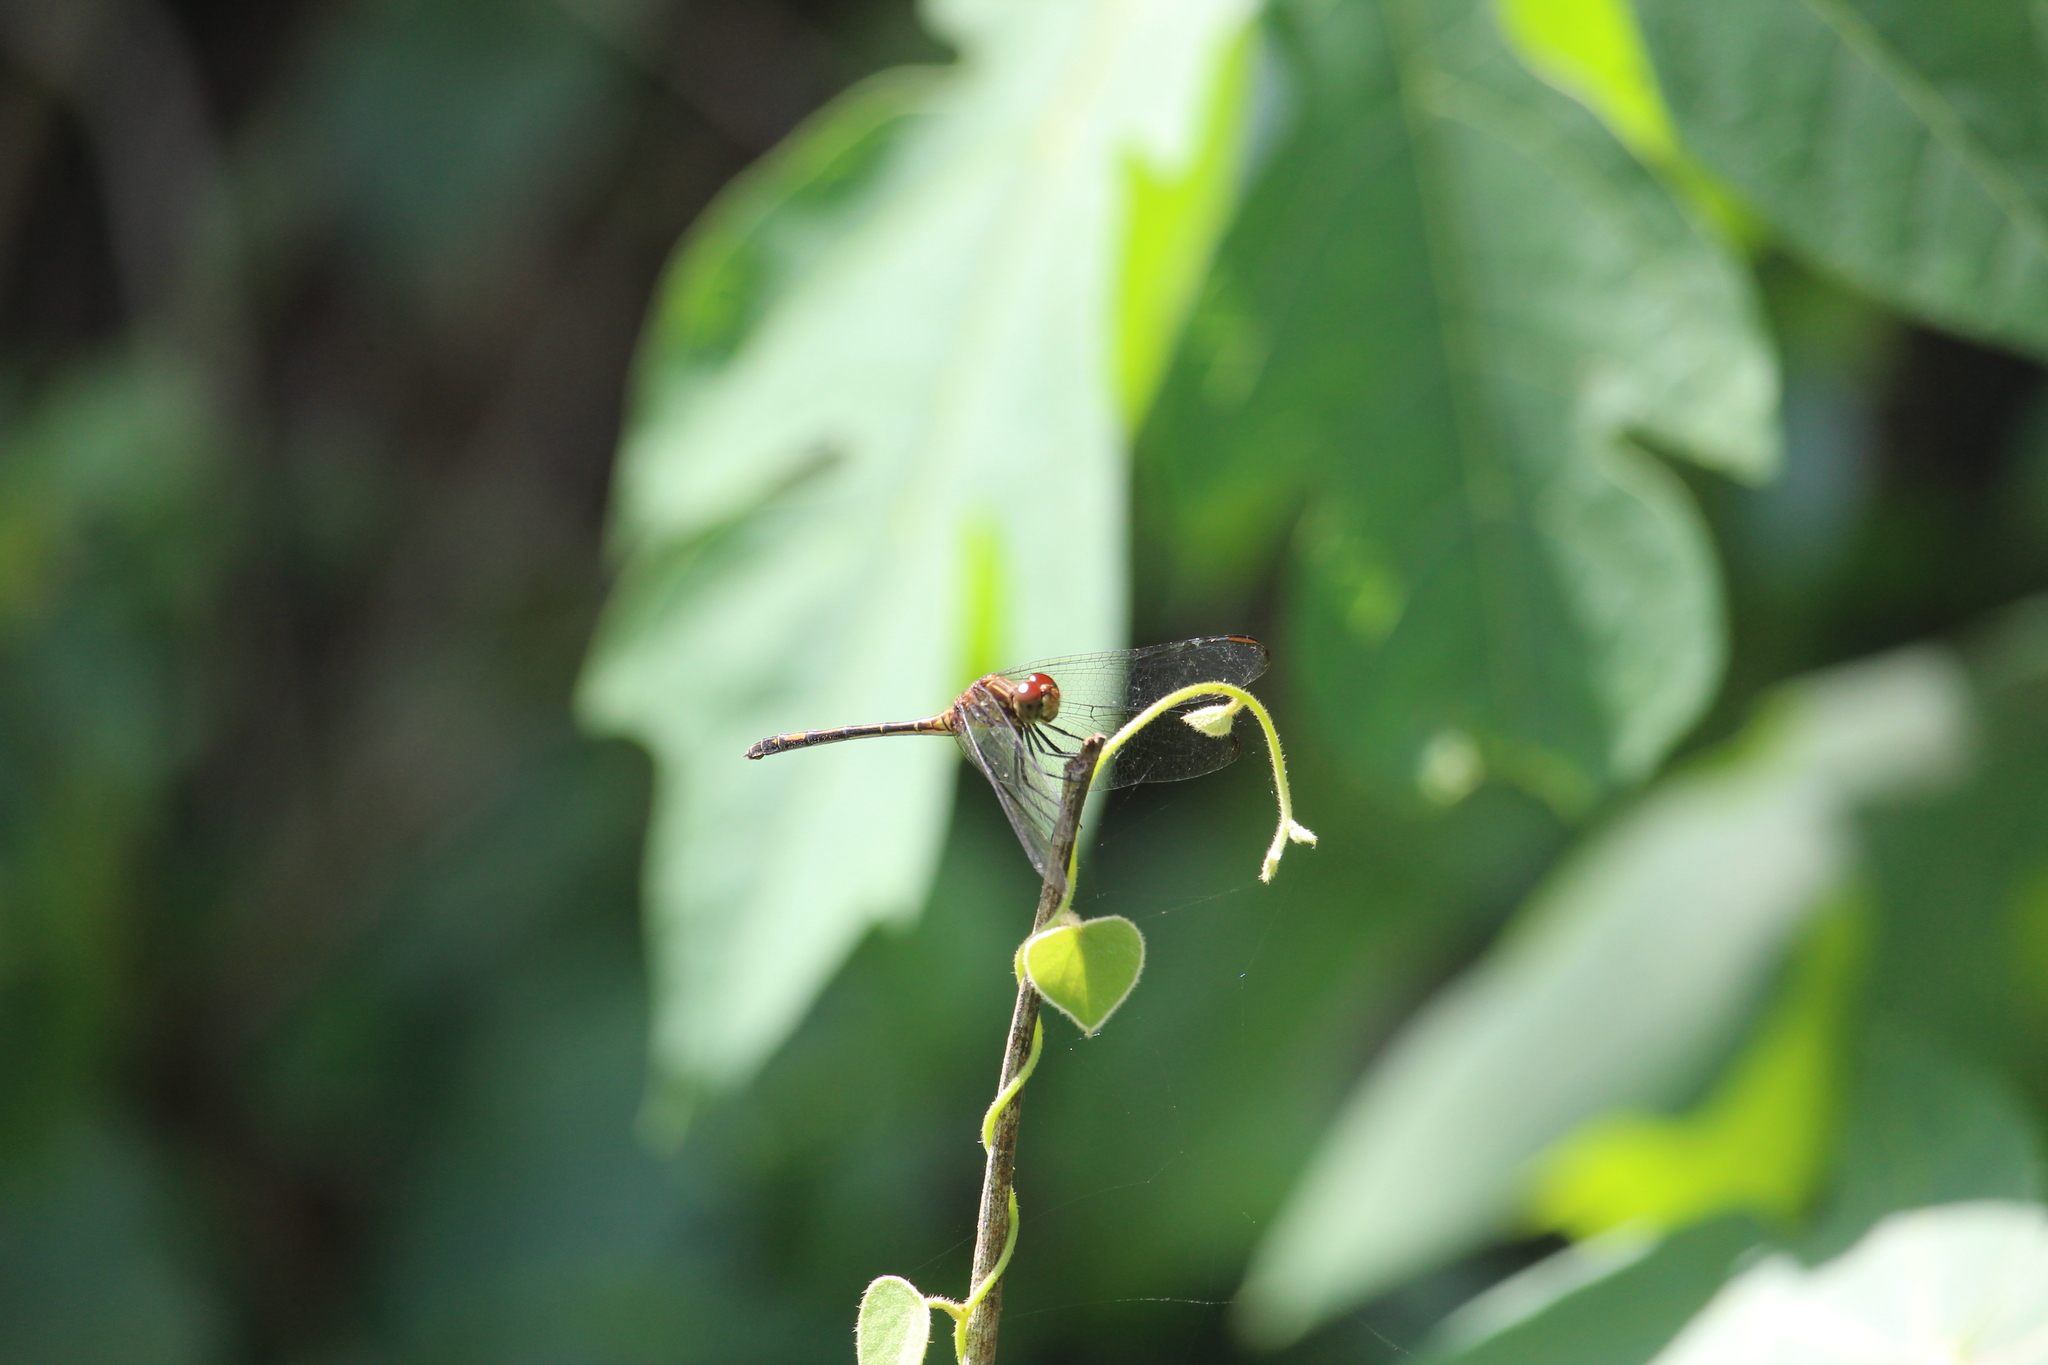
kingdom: Animalia
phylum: Arthropoda
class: Insecta
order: Odonata
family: Libellulidae
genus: Dythemis
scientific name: Dythemis sterilis
